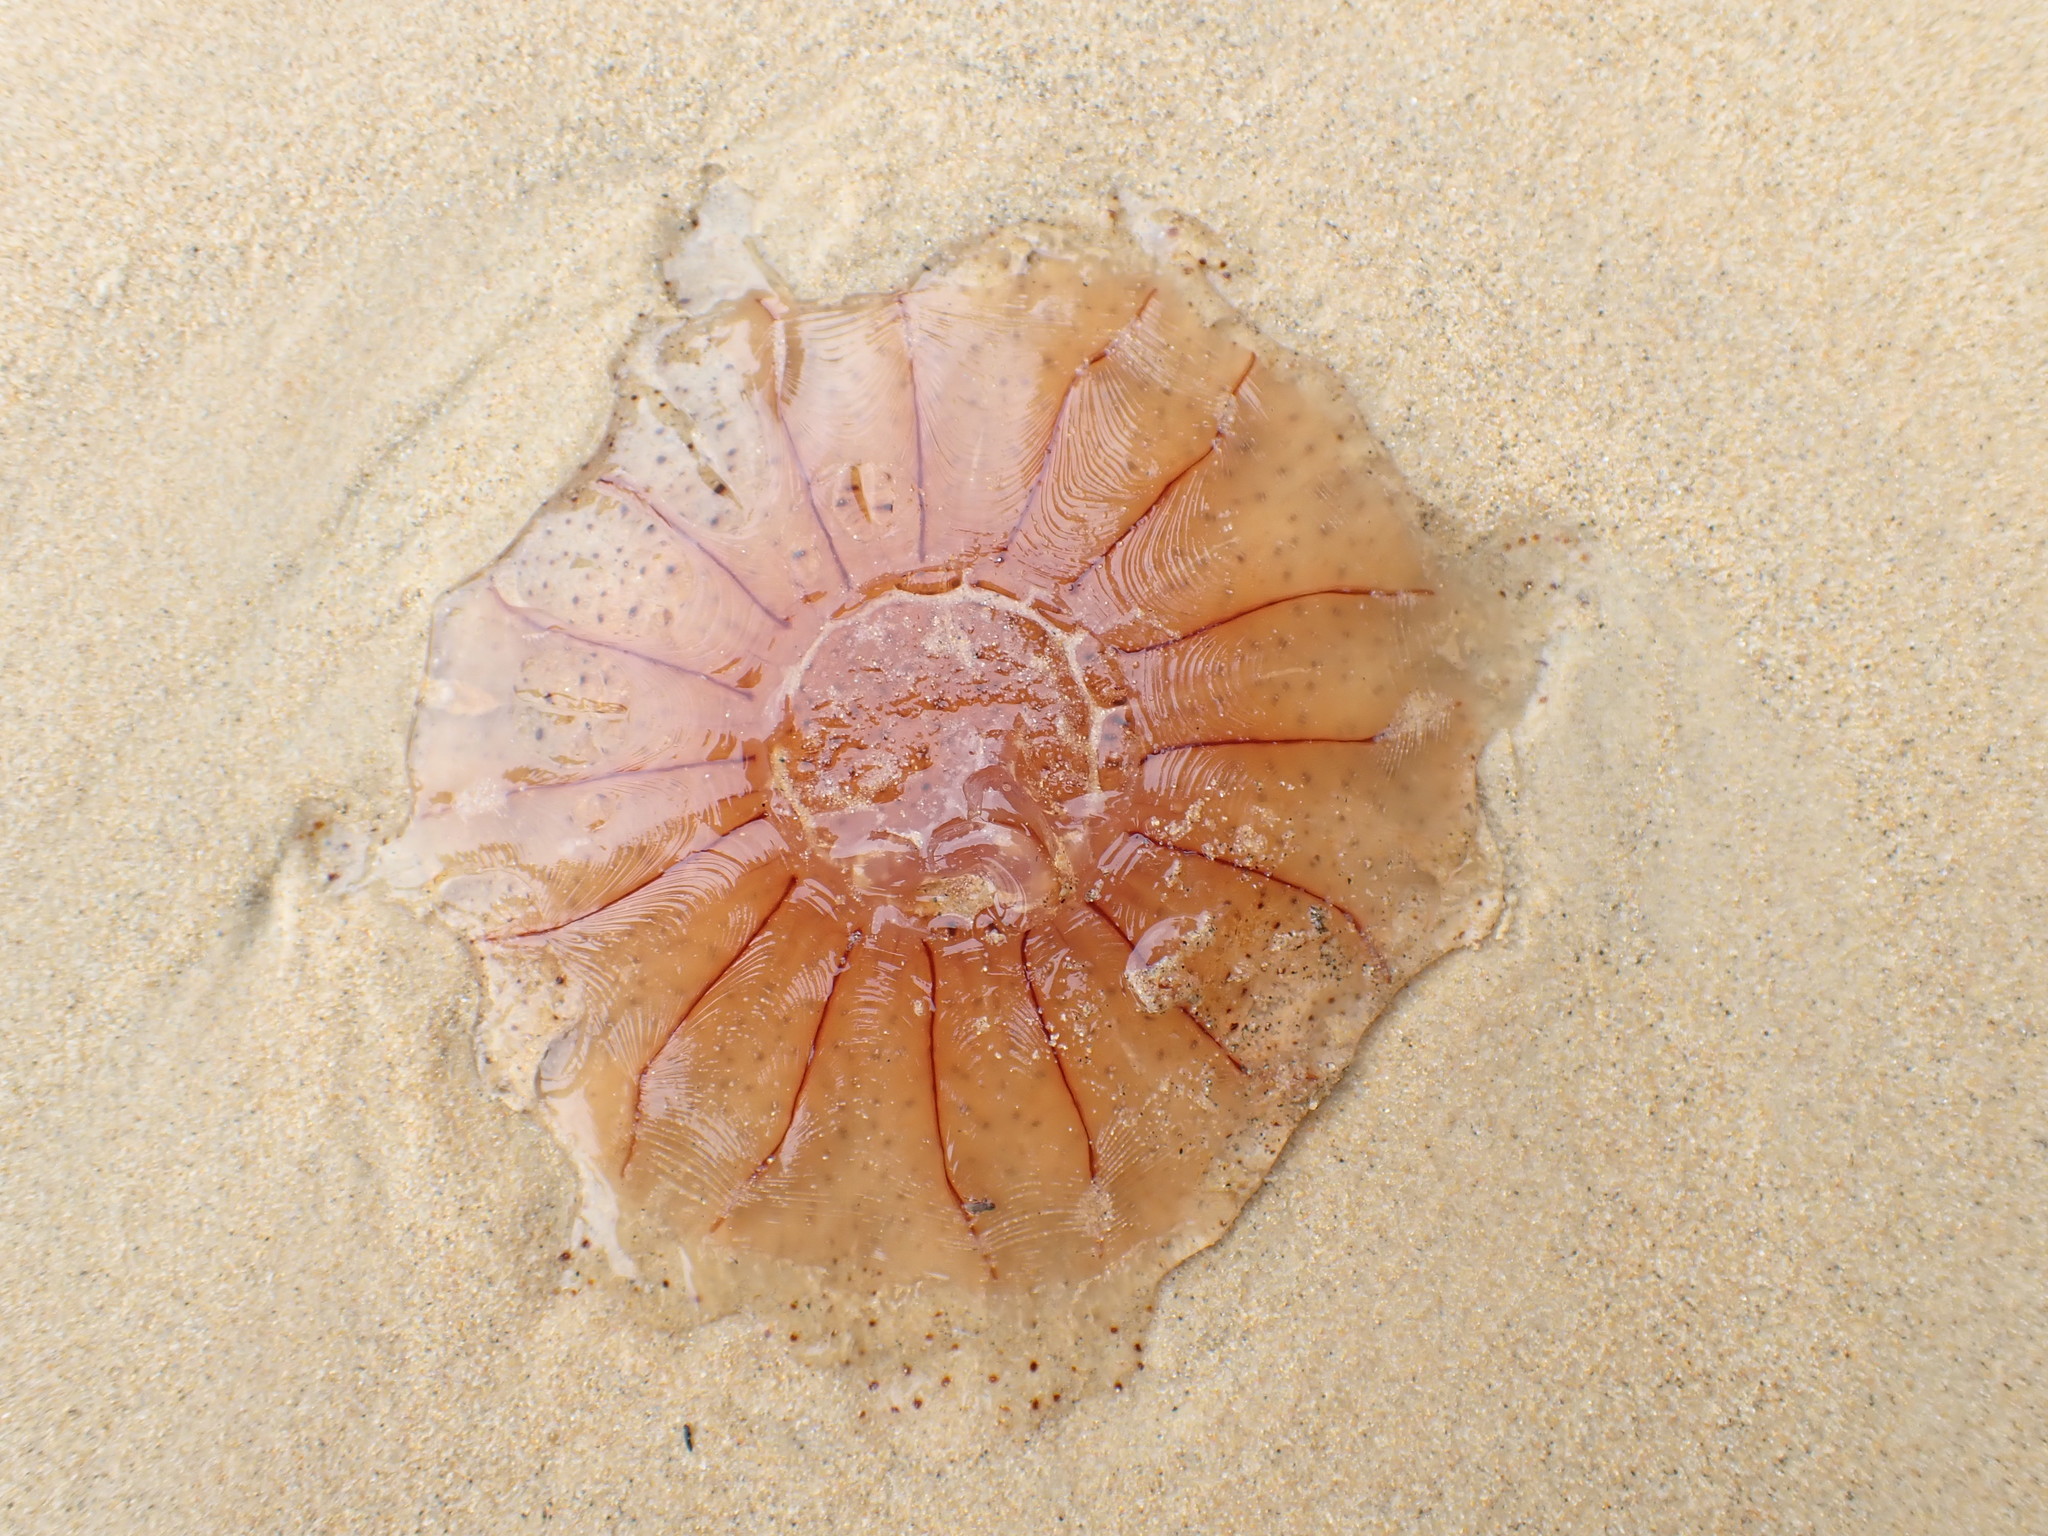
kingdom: Animalia
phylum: Cnidaria
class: Scyphozoa
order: Semaeostomeae
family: Cyaneidae
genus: Desmonema
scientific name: Desmonema gaudichaudi
